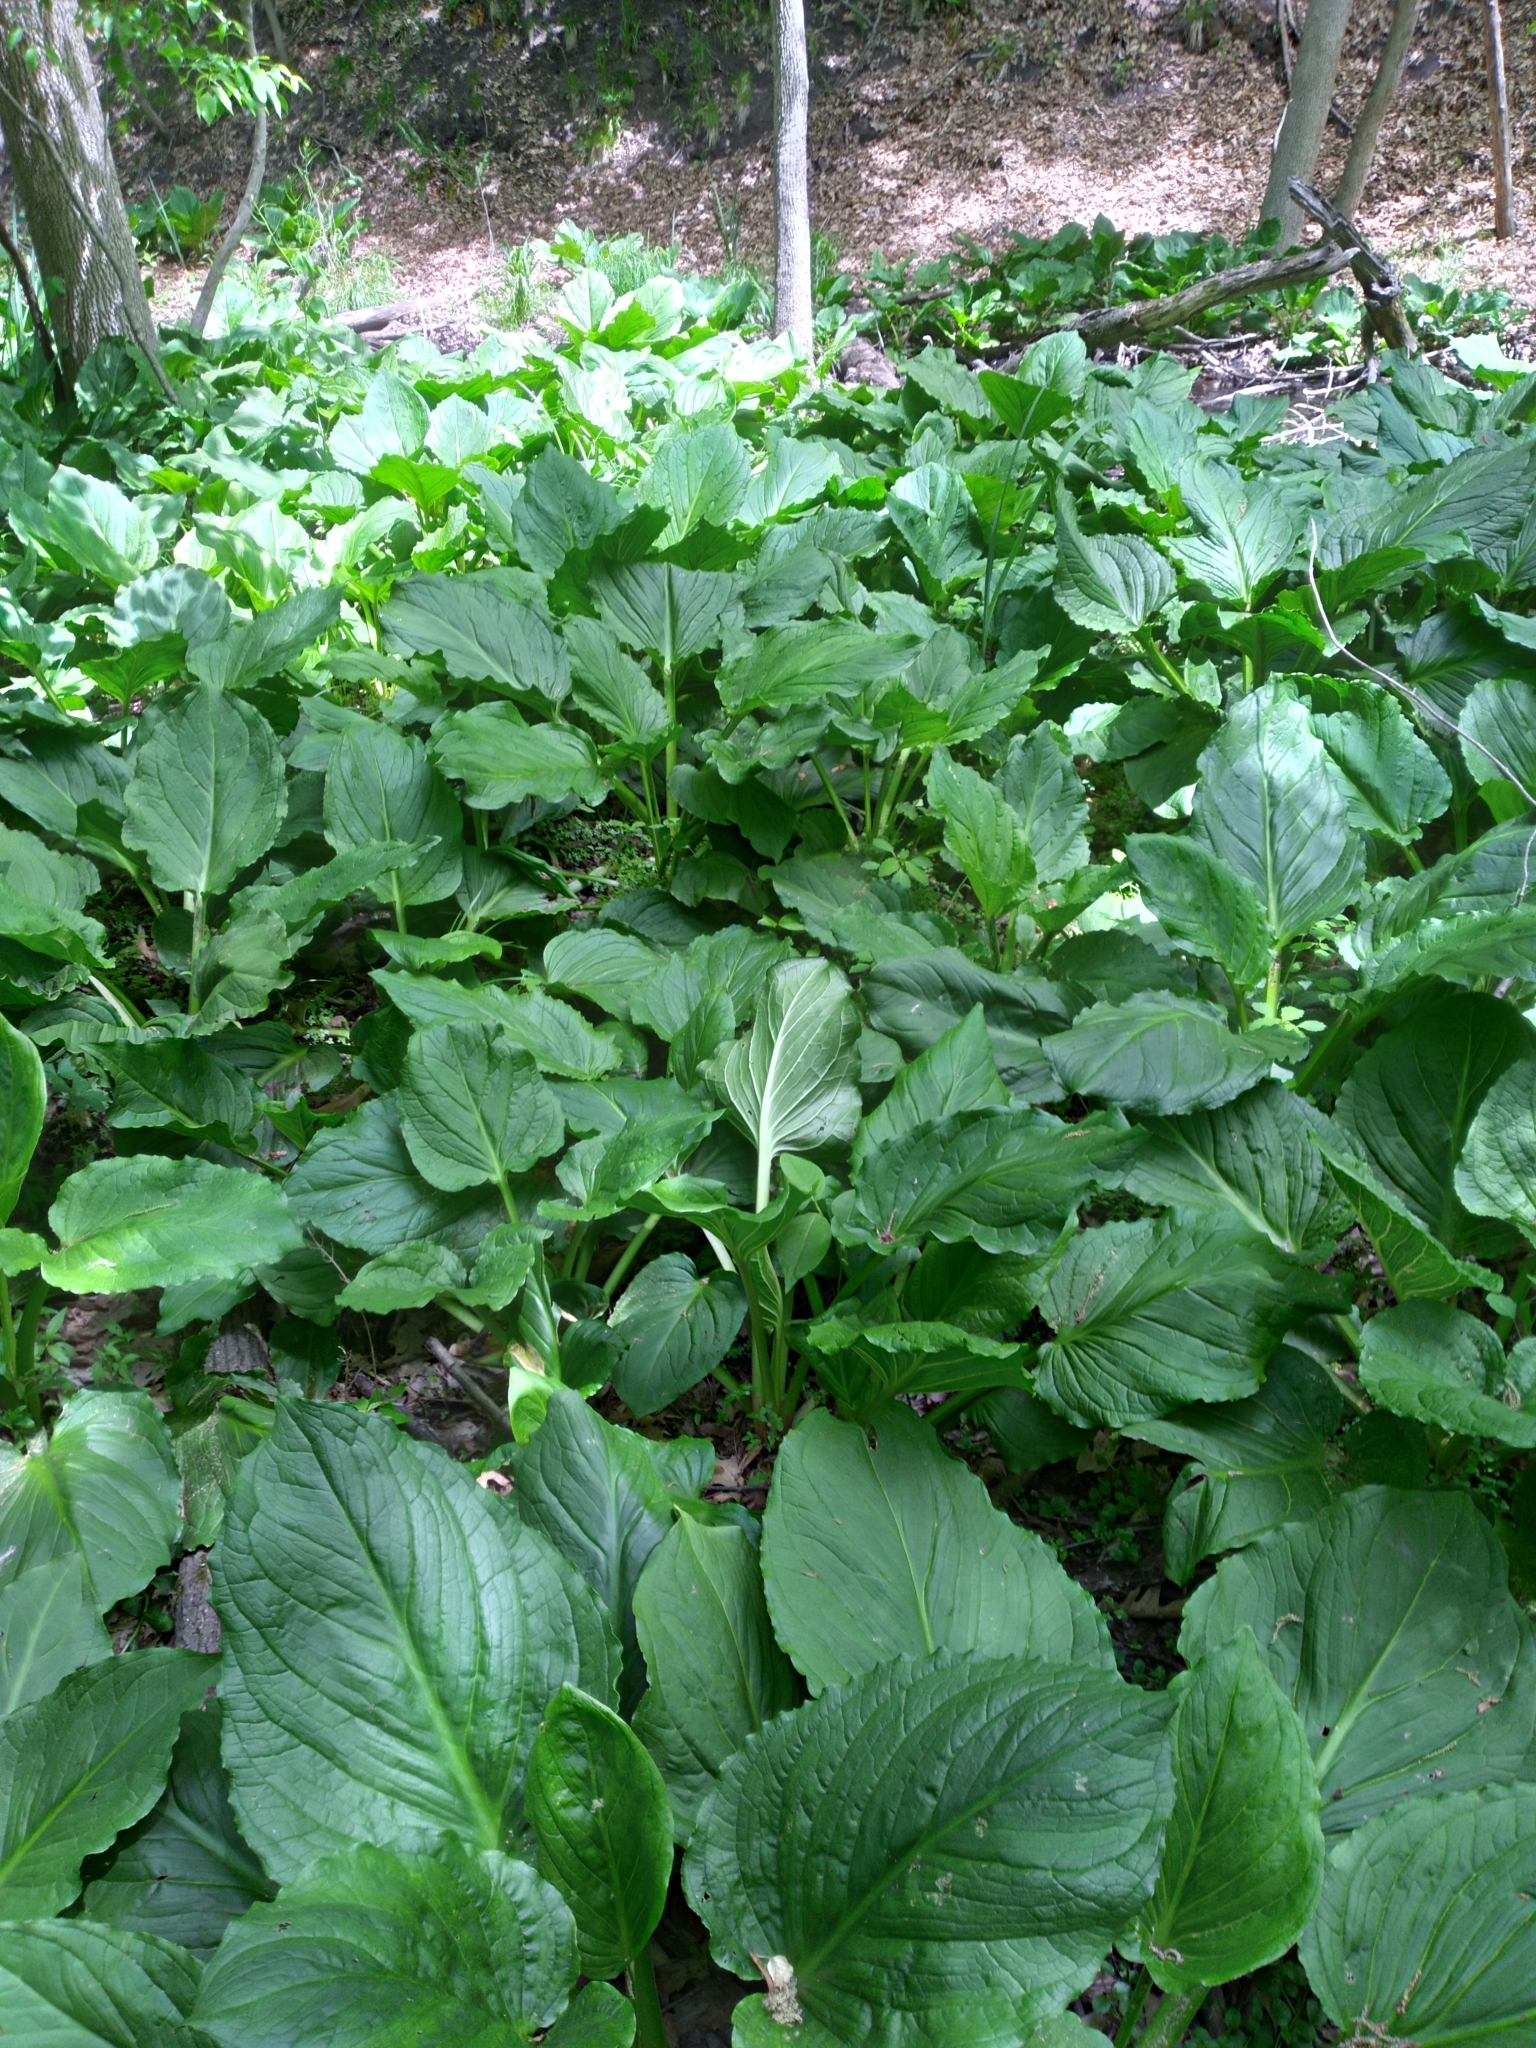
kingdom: Plantae
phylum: Tracheophyta
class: Liliopsida
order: Alismatales
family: Araceae
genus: Symplocarpus
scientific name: Symplocarpus foetidus
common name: Eastern skunk cabbage
